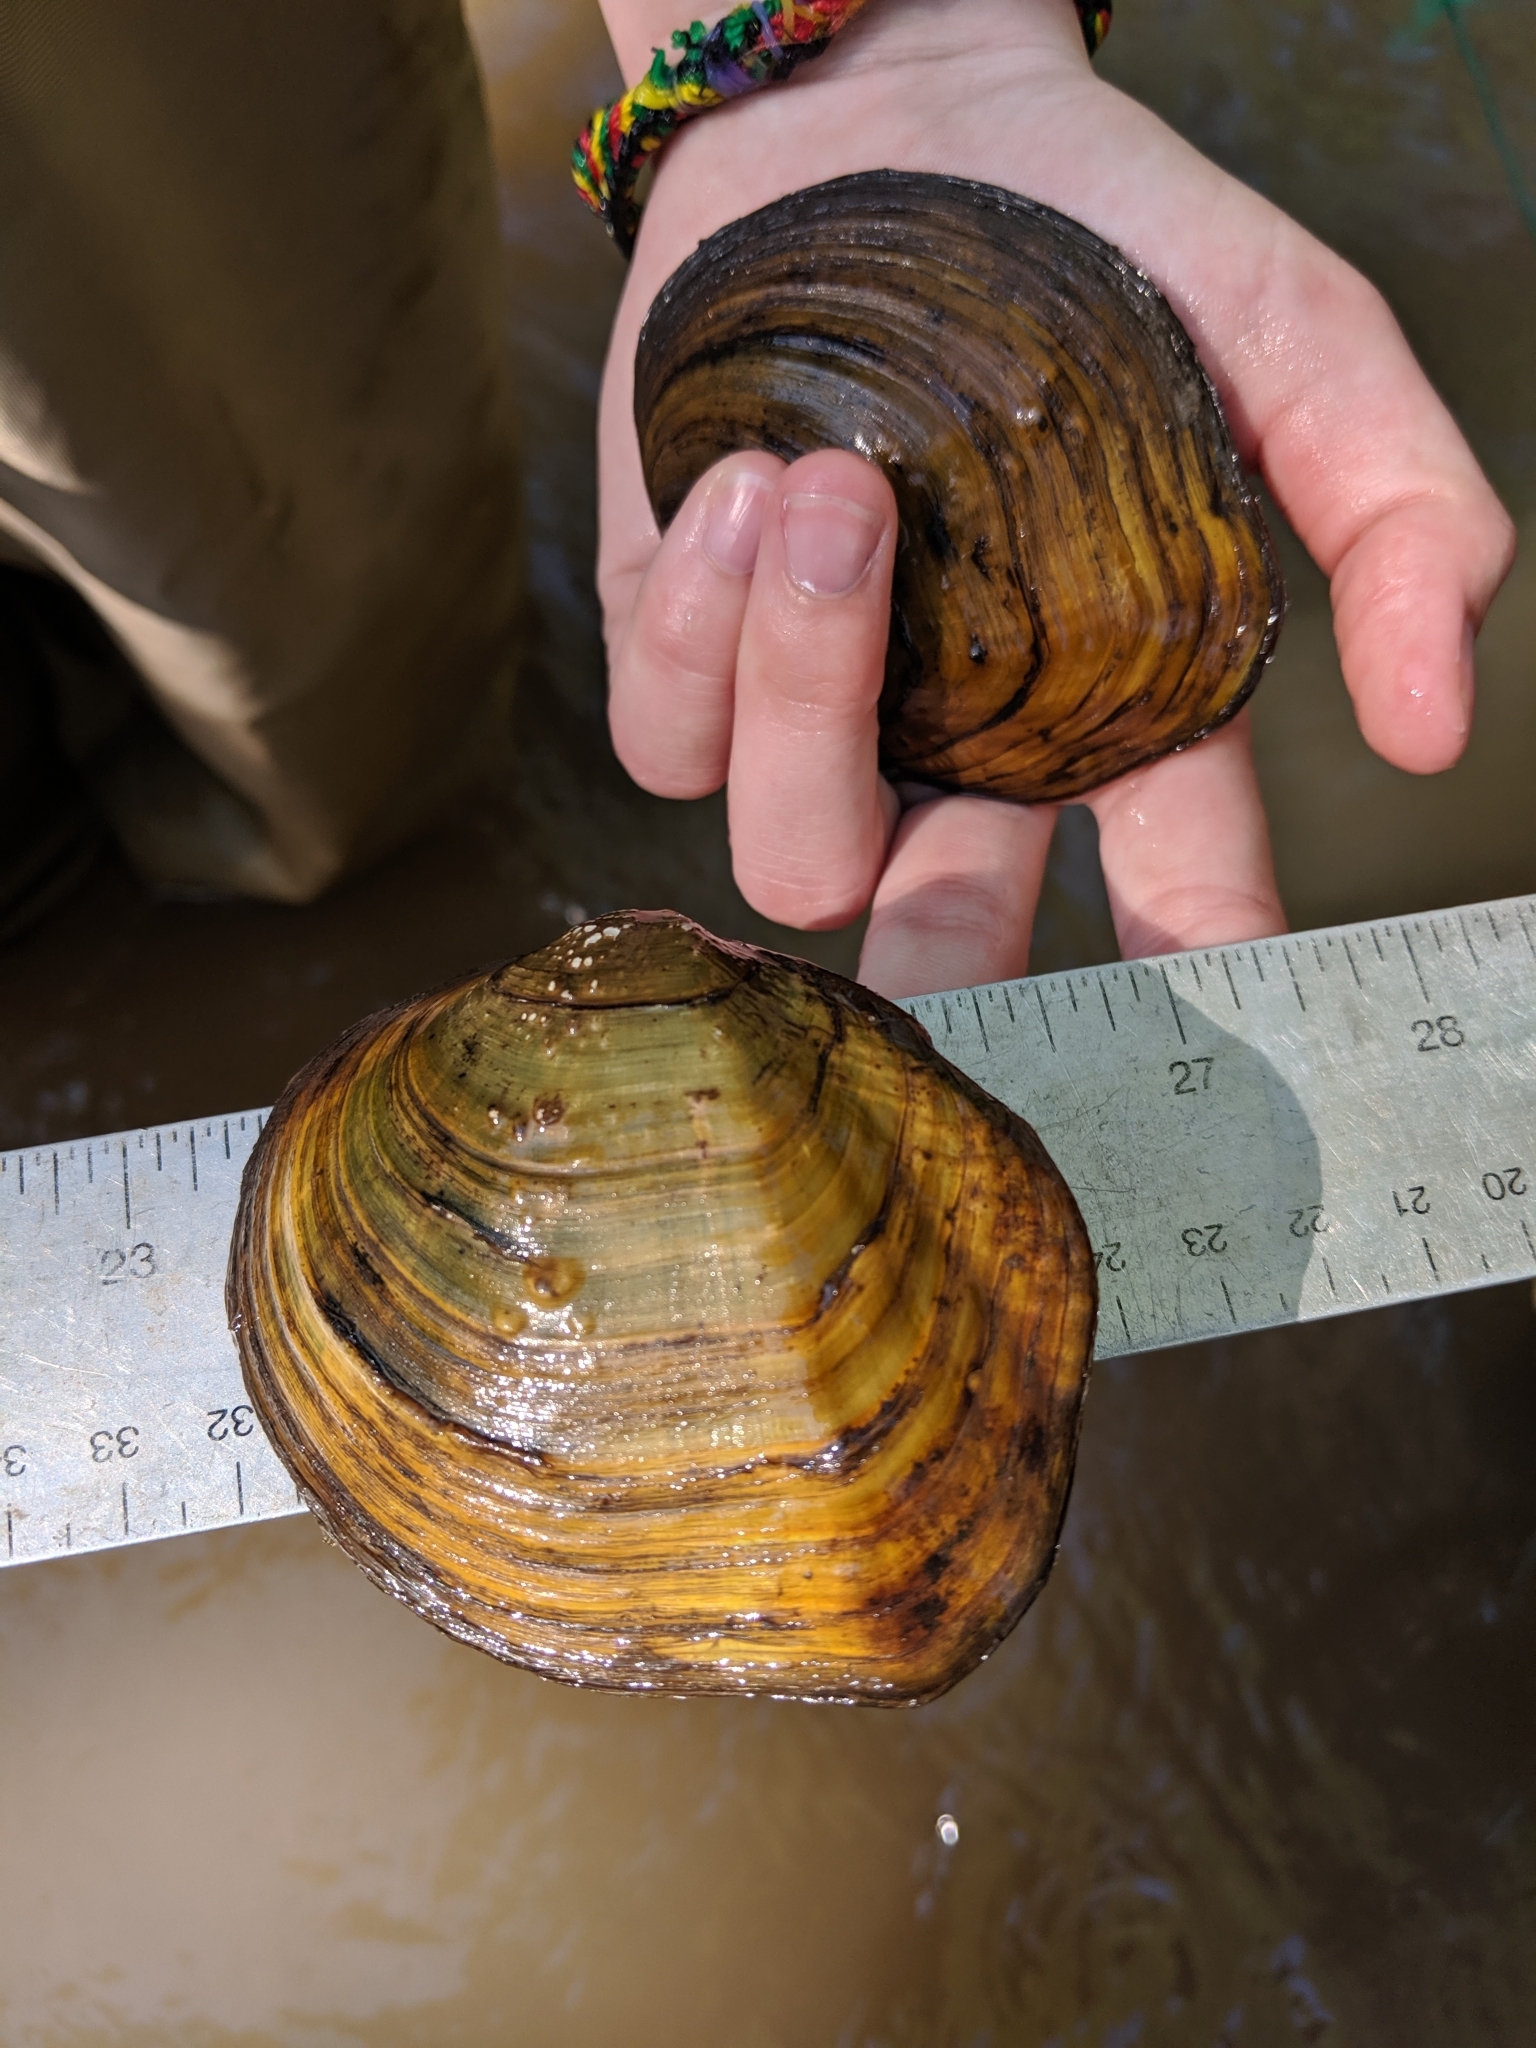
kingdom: Animalia
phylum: Mollusca
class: Bivalvia
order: Unionida
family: Unionidae
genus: Quadrula
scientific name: Quadrula quadrula
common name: Mapleleaf
